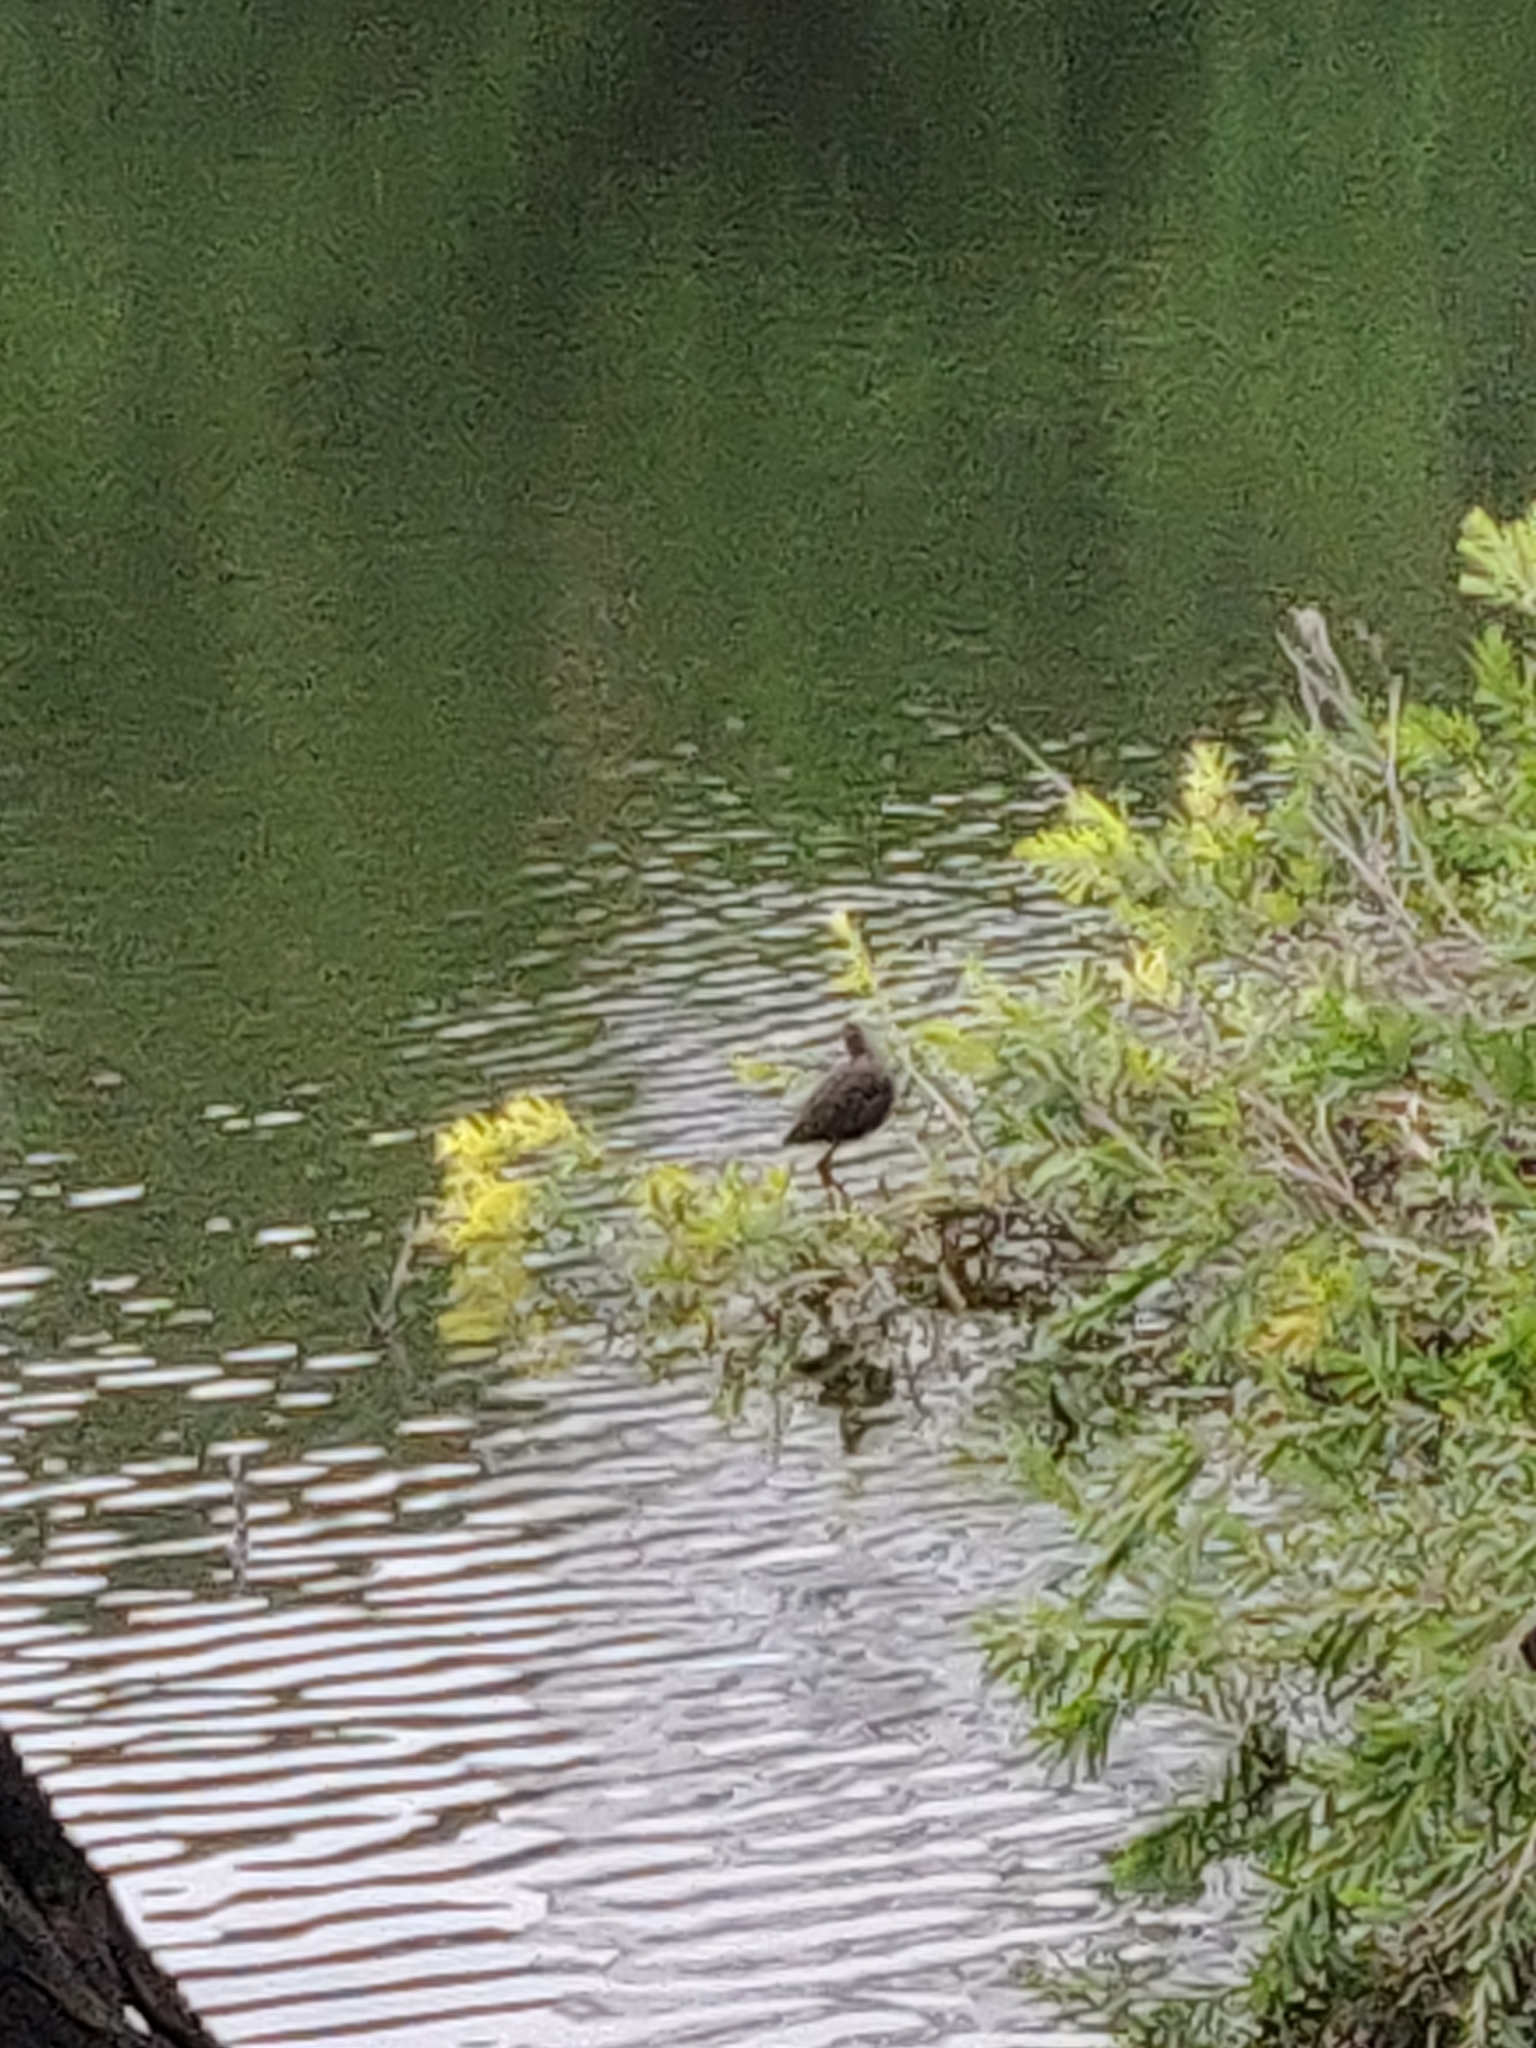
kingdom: Animalia
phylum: Chordata
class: Aves
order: Gruiformes
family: Rallidae
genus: Gallinula
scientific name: Gallinula chloropus
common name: Common moorhen
